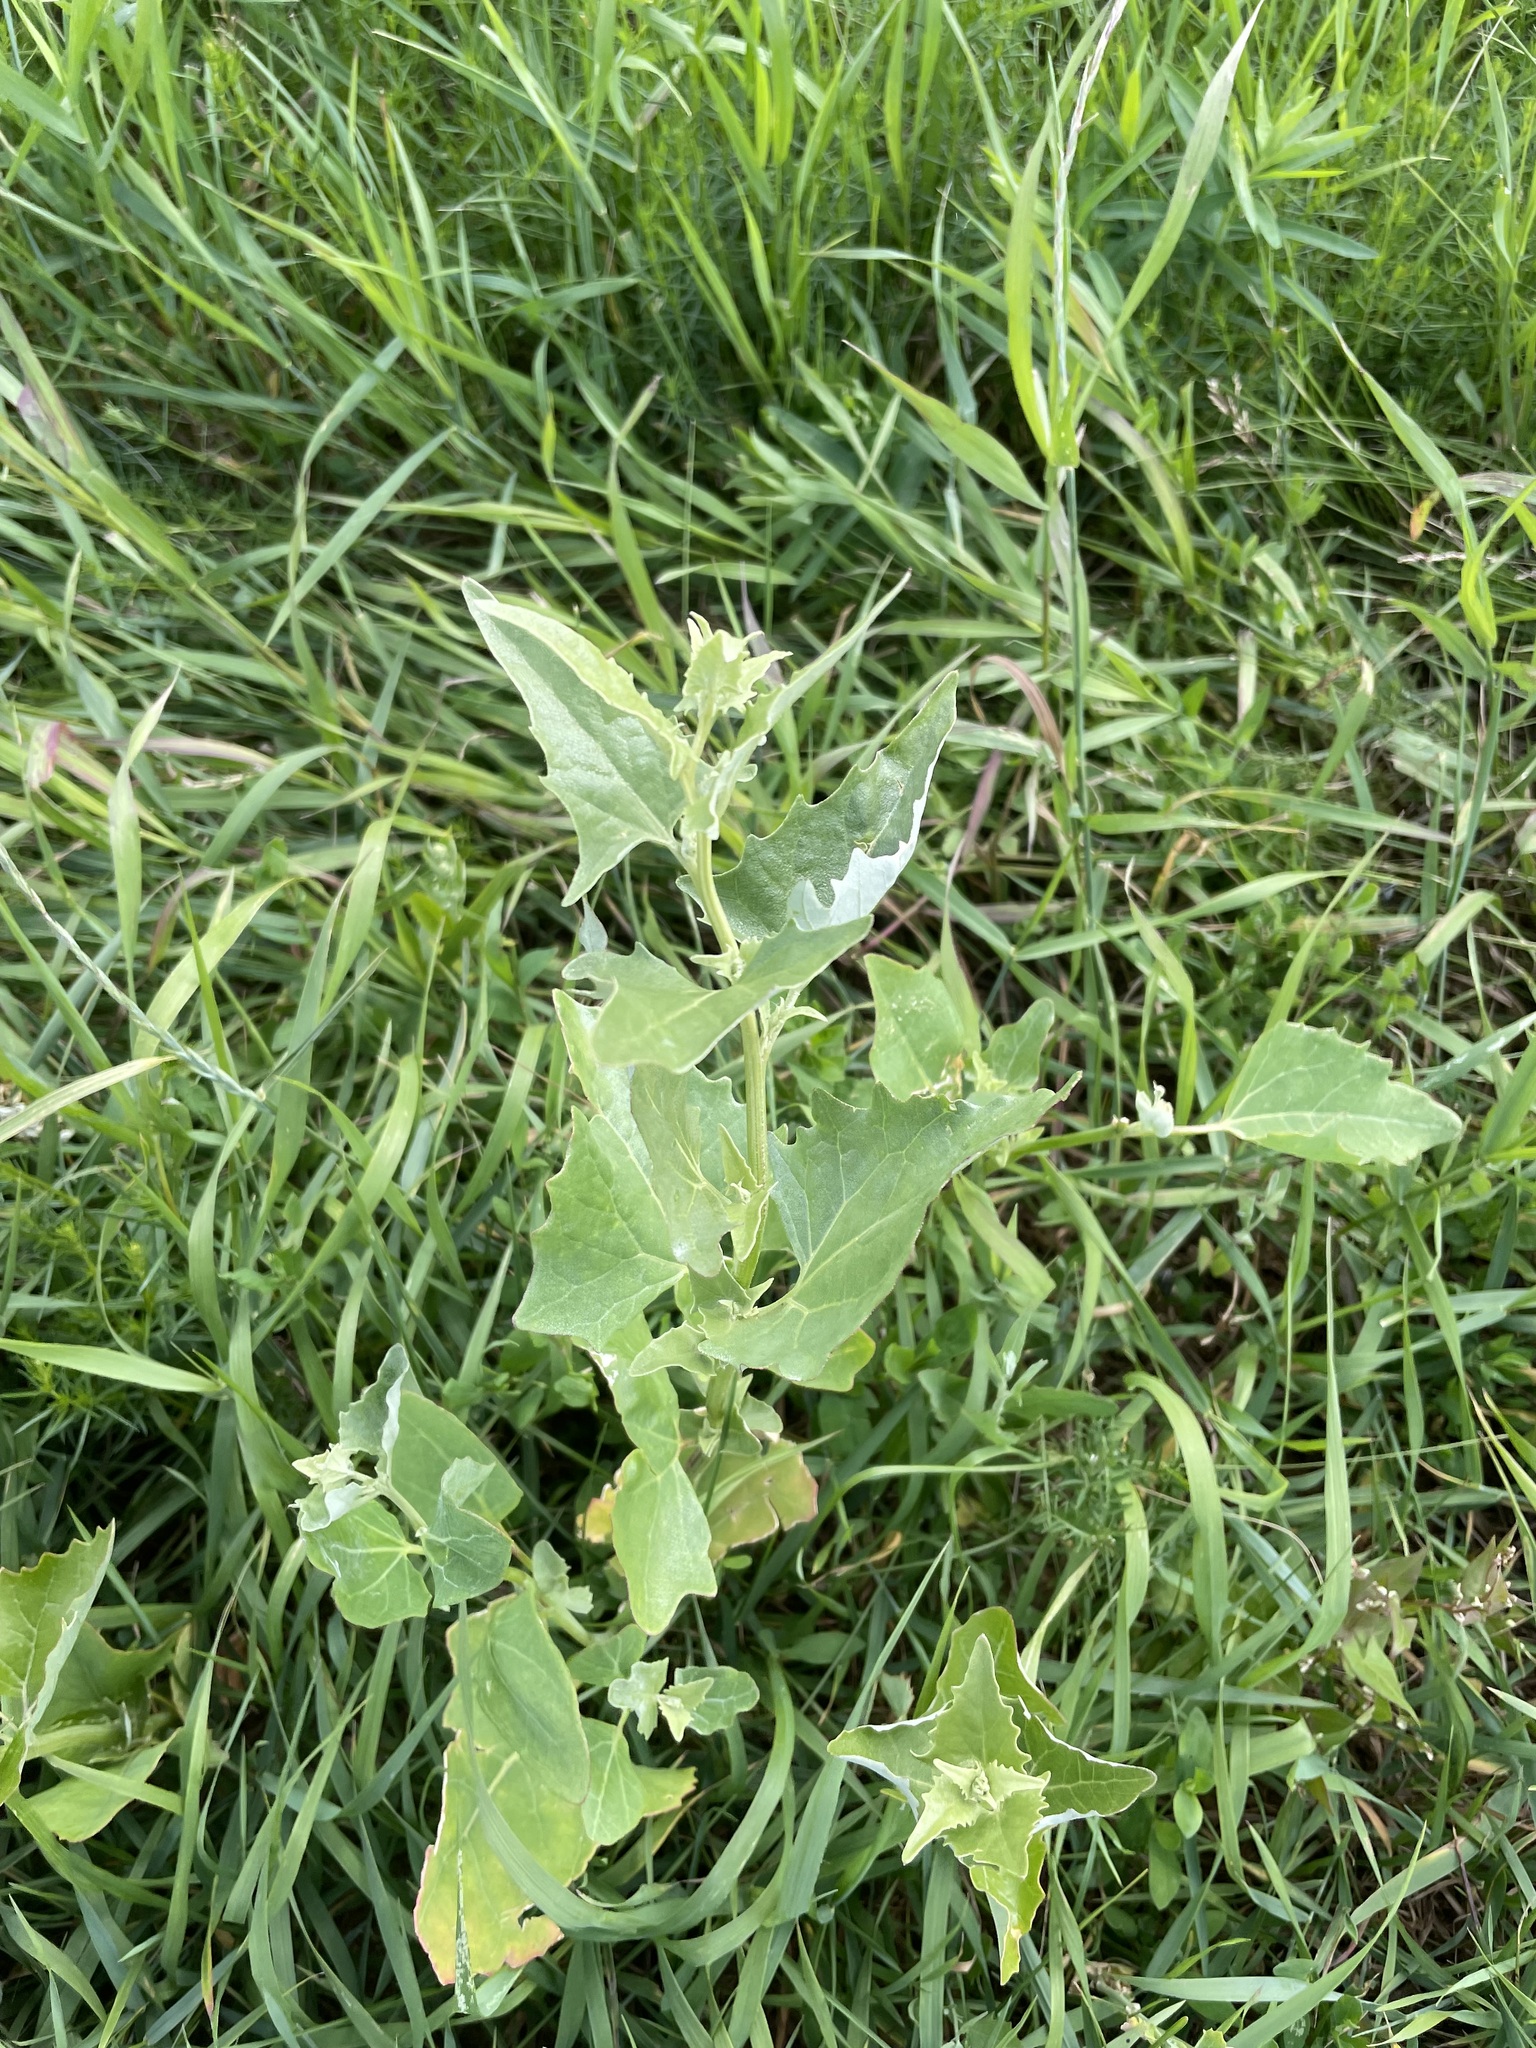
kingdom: Plantae
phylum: Tracheophyta
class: Magnoliopsida
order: Caryophyllales
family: Amaranthaceae
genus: Atriplex
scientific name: Atriplex sagittata
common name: Purple orache
